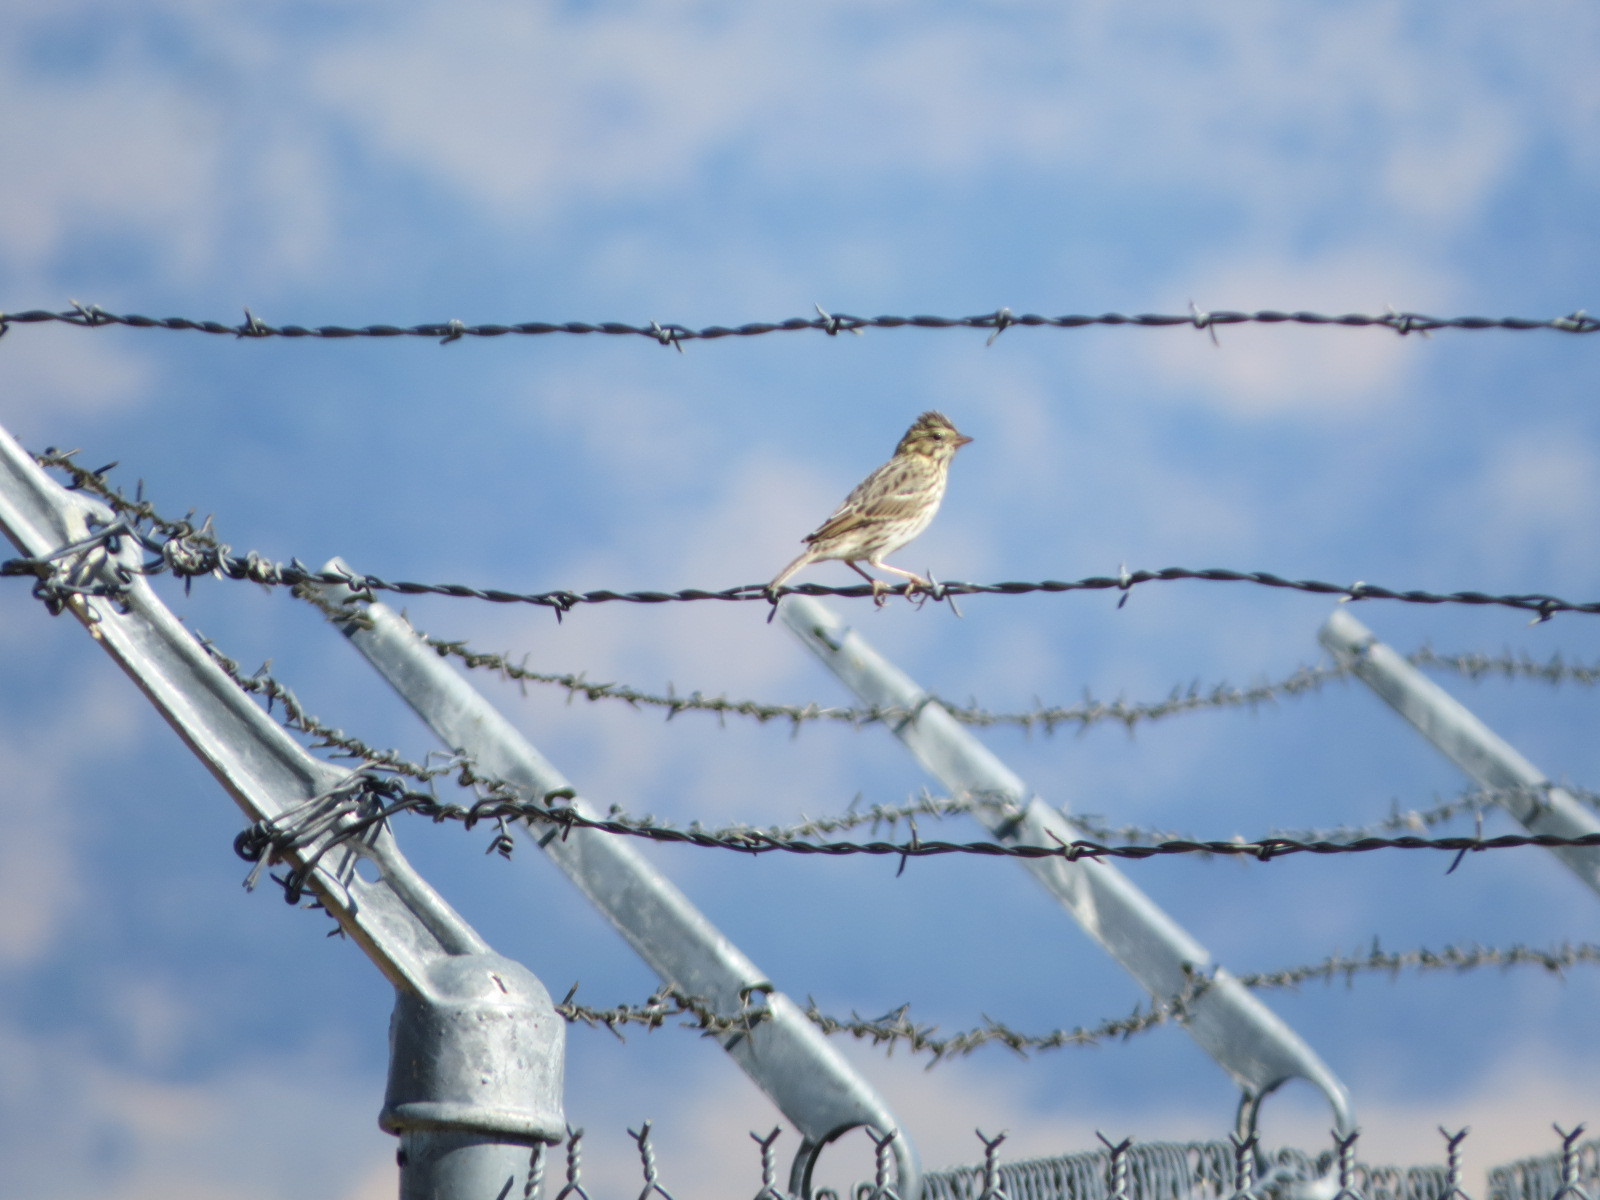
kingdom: Animalia
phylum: Chordata
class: Aves
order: Passeriformes
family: Passerellidae
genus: Passerculus
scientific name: Passerculus sandwichensis
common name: Savannah sparrow
